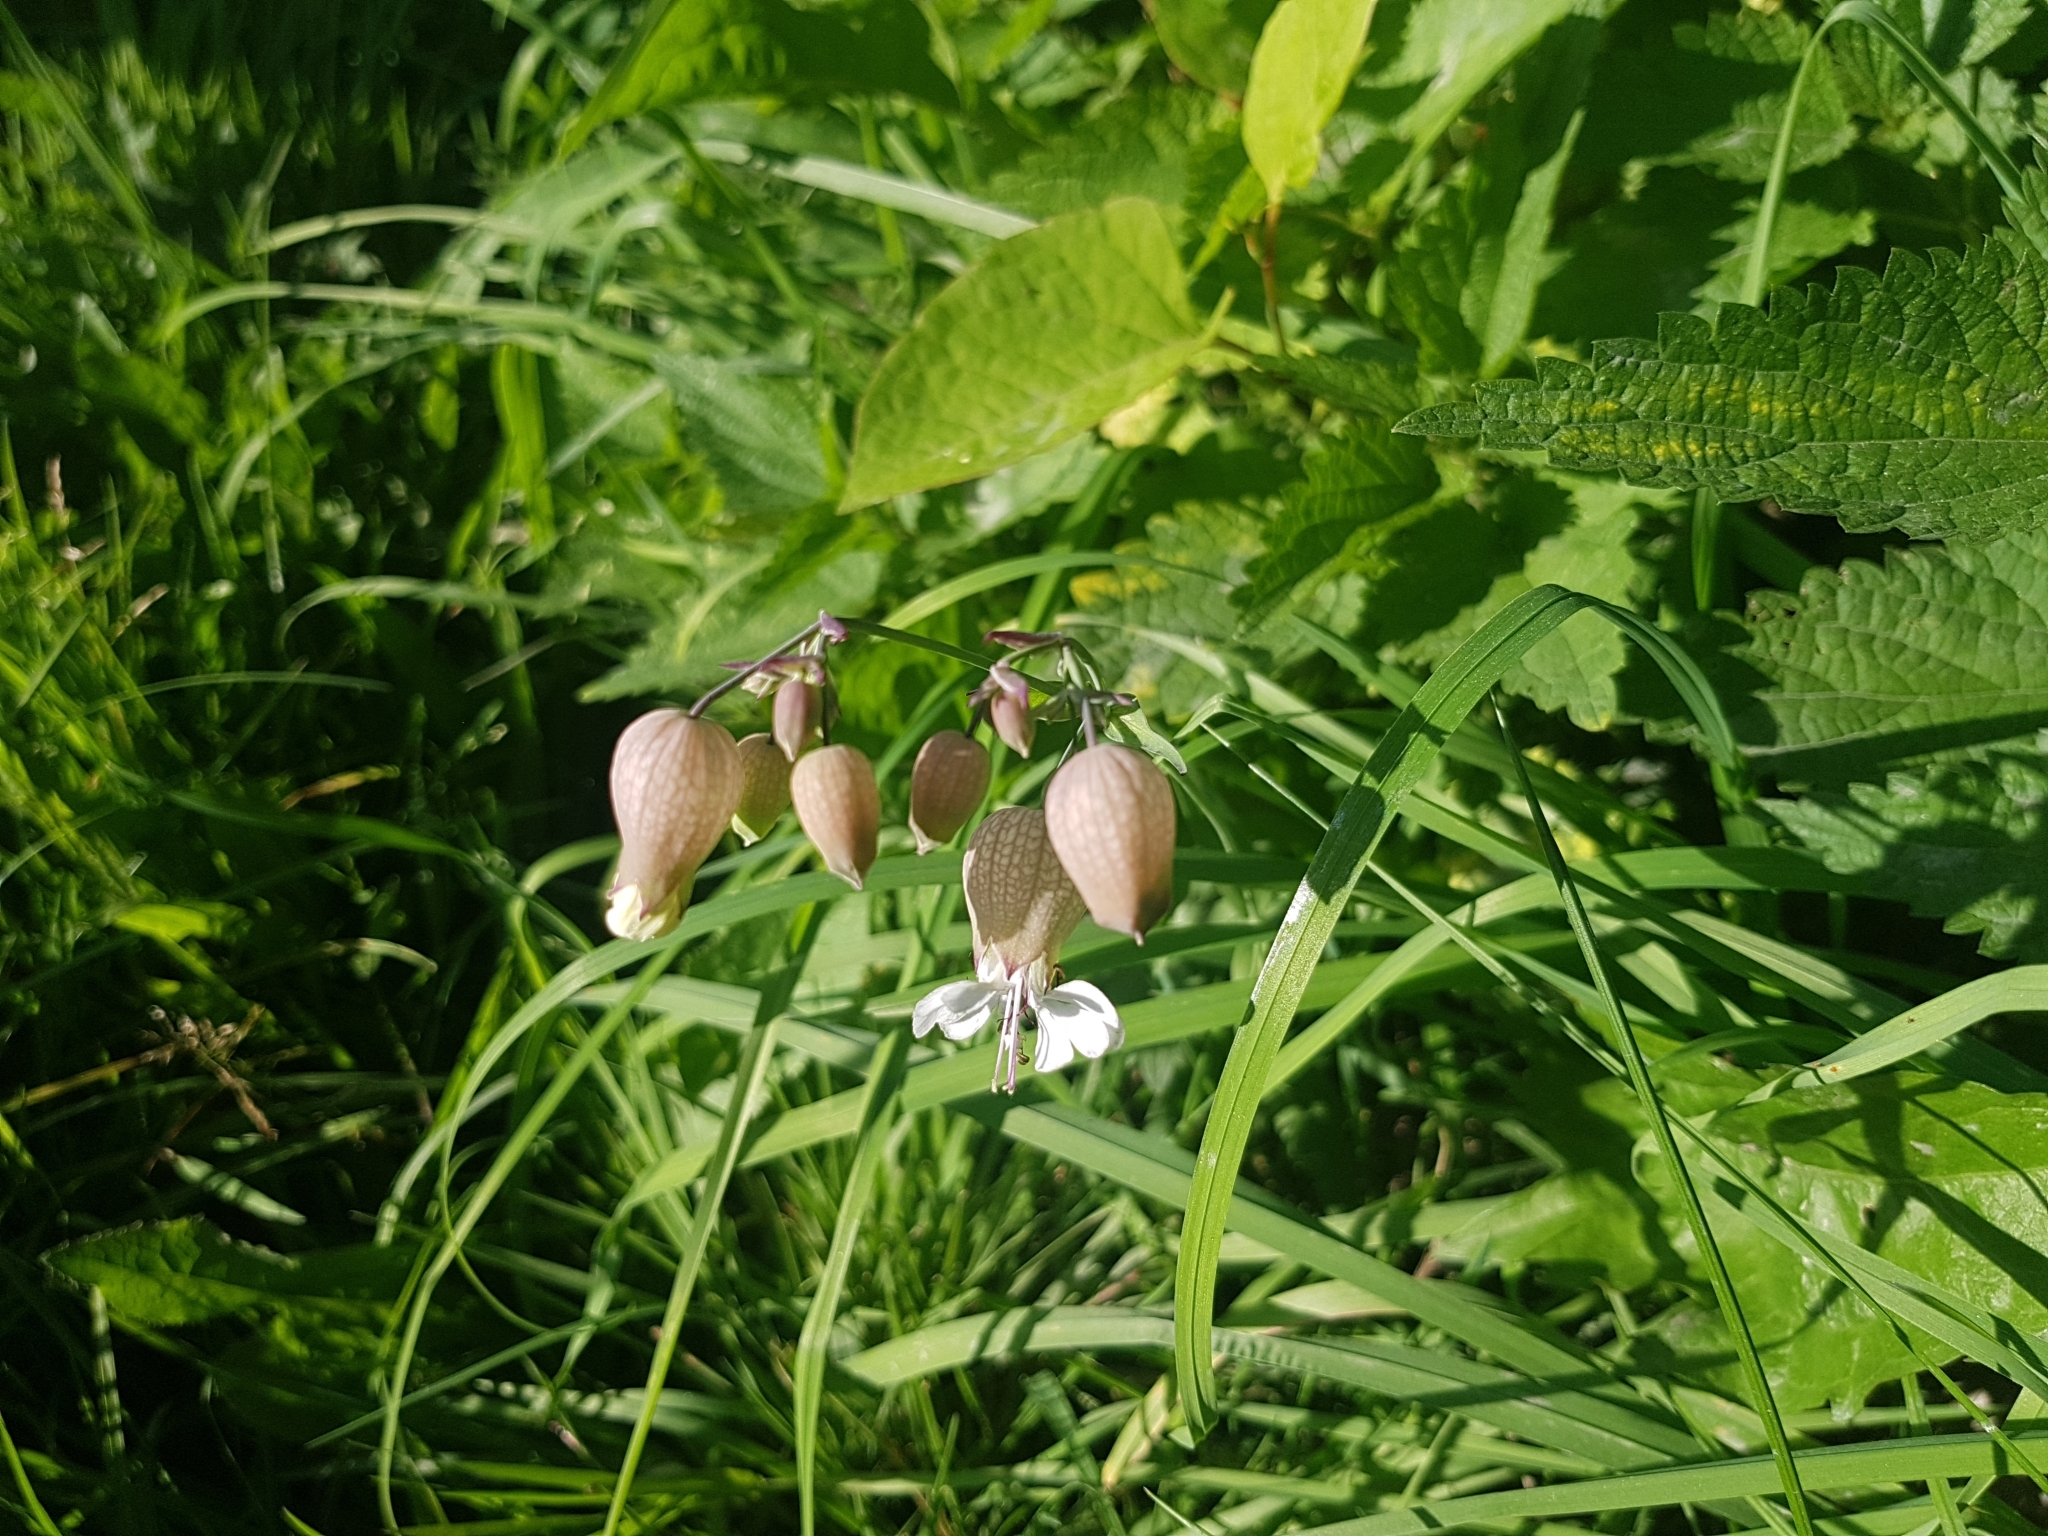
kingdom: Plantae
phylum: Tracheophyta
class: Magnoliopsida
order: Caryophyllales
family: Caryophyllaceae
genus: Silene
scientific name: Silene vulgaris
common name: Bladder campion
